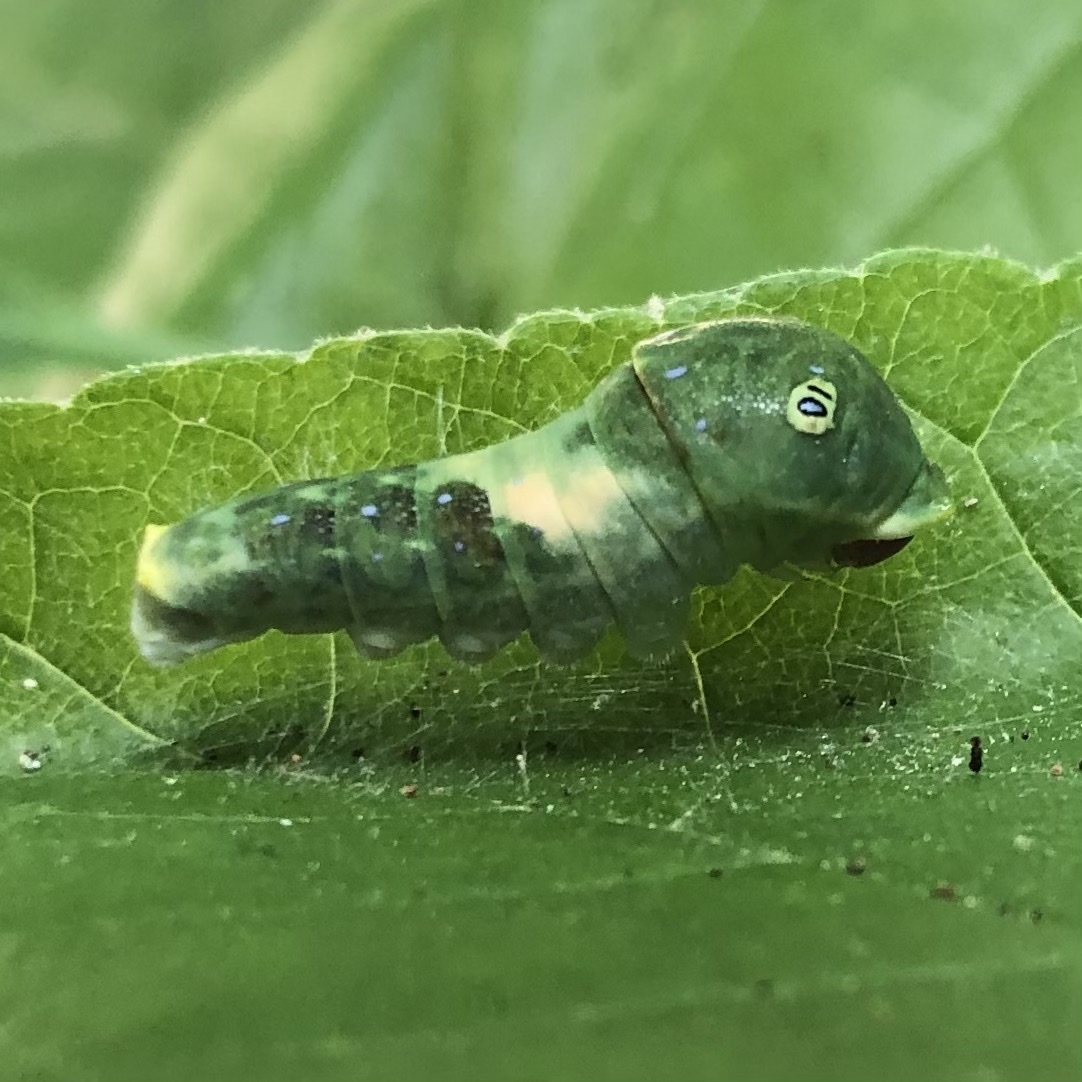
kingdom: Animalia
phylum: Arthropoda
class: Insecta
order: Lepidoptera
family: Papilionidae
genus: Papilio
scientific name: Papilio glaucus
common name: Tiger swallowtail
